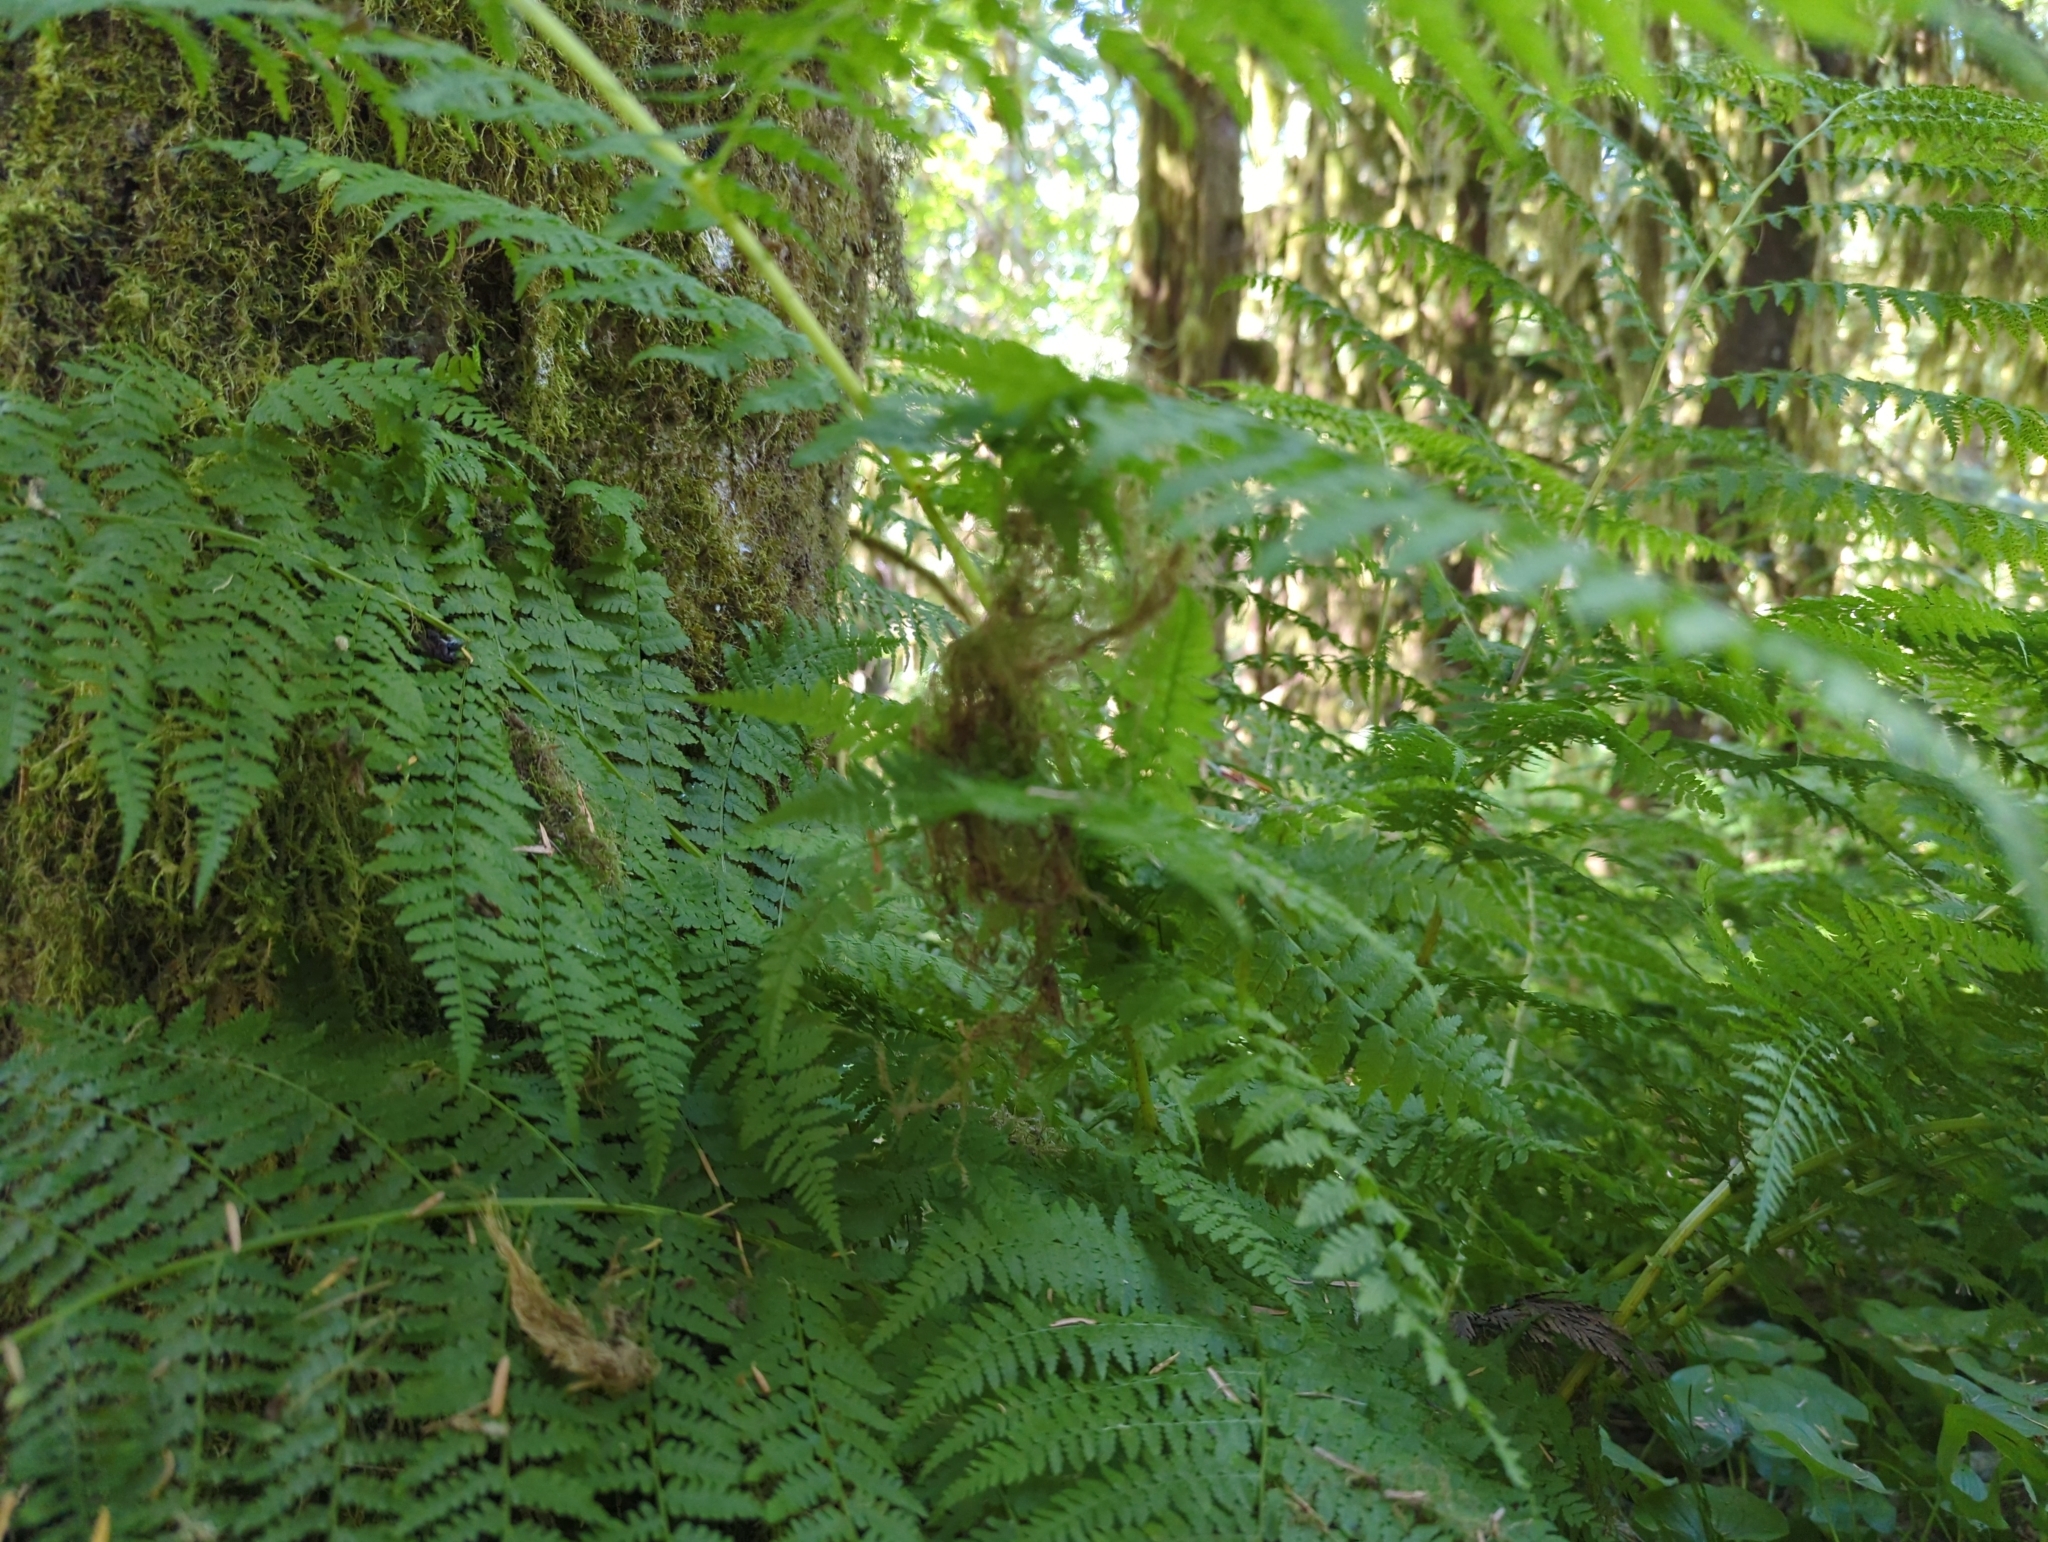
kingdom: Plantae
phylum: Tracheophyta
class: Polypodiopsida
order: Polypodiales
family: Athyriaceae
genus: Athyrium
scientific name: Athyrium filix-femina
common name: Lady fern
